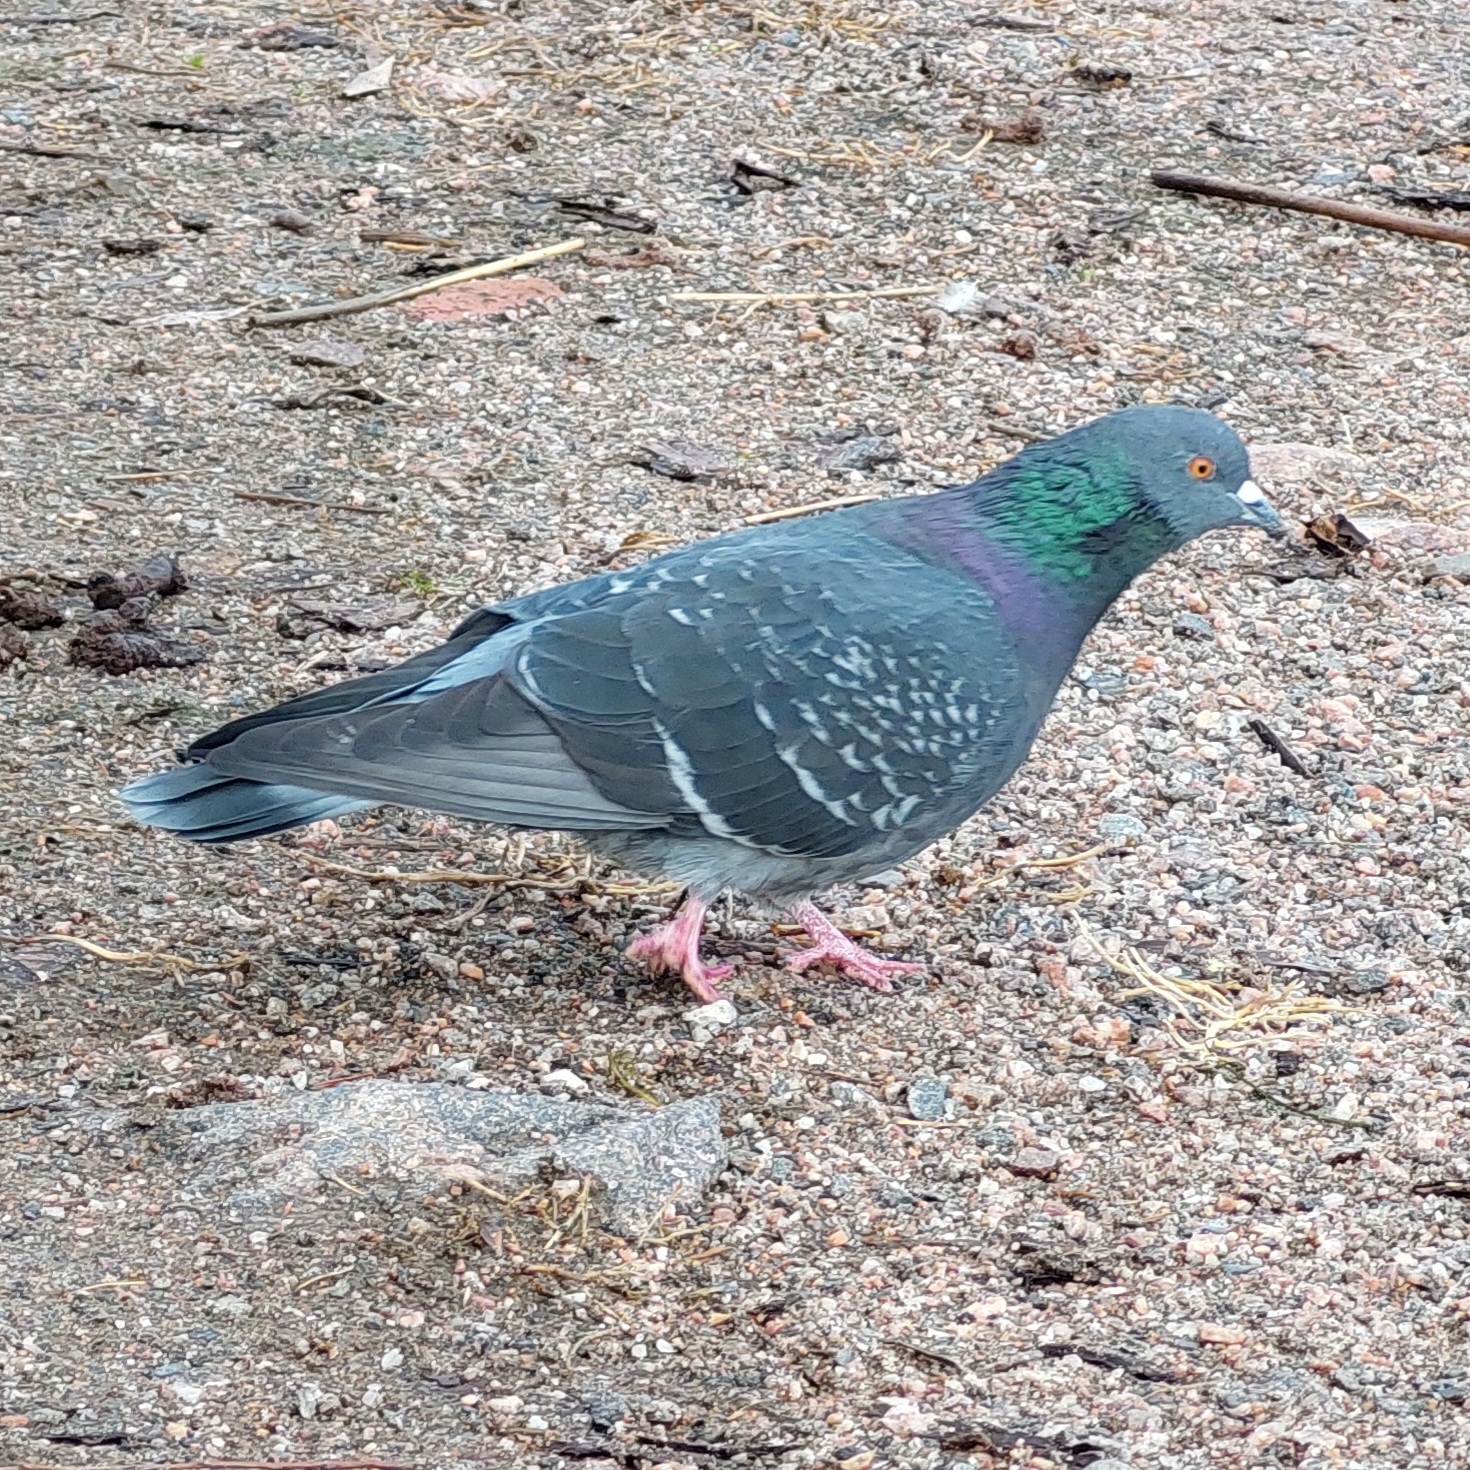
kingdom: Animalia
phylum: Chordata
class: Aves
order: Columbiformes
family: Columbidae
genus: Columba
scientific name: Columba livia
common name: Rock pigeon
